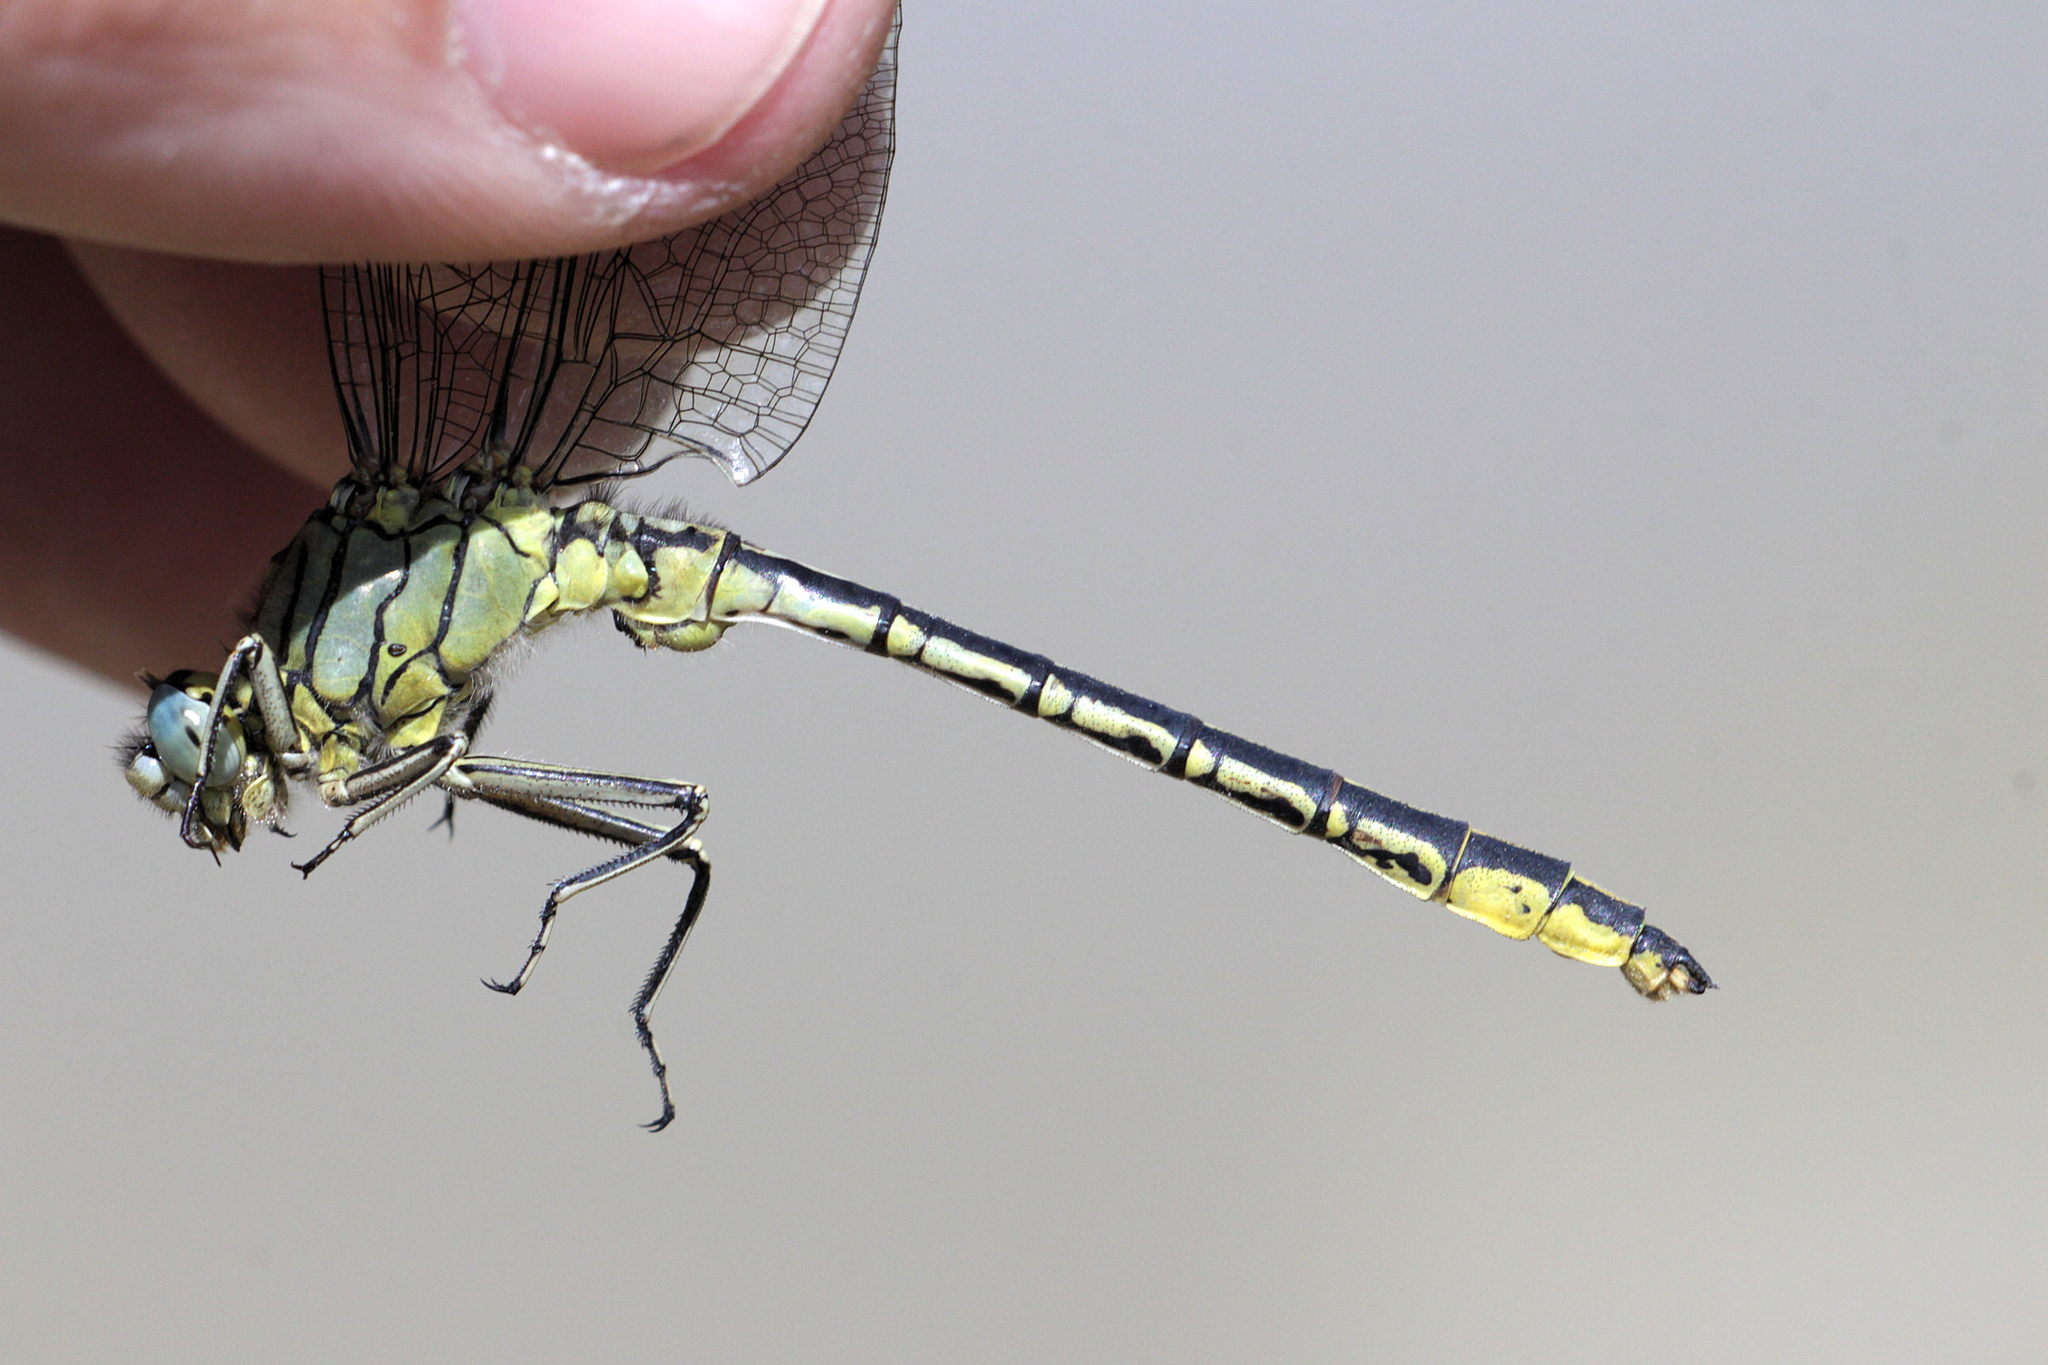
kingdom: Animalia
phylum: Arthropoda
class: Insecta
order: Odonata
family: Gomphidae
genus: Gomphus
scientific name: Gomphus pulchellus
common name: Western clubtail
